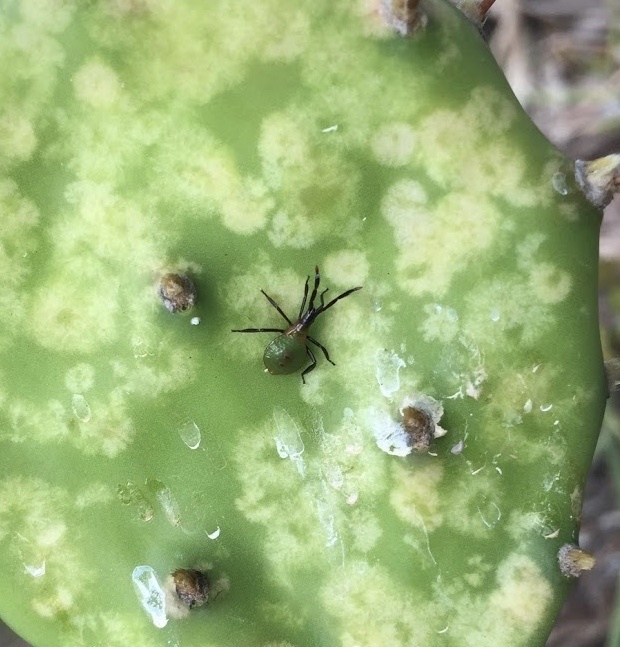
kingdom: Animalia
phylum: Arthropoda
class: Insecta
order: Hemiptera
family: Coreidae
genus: Chelinidea
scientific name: Chelinidea vittiger
